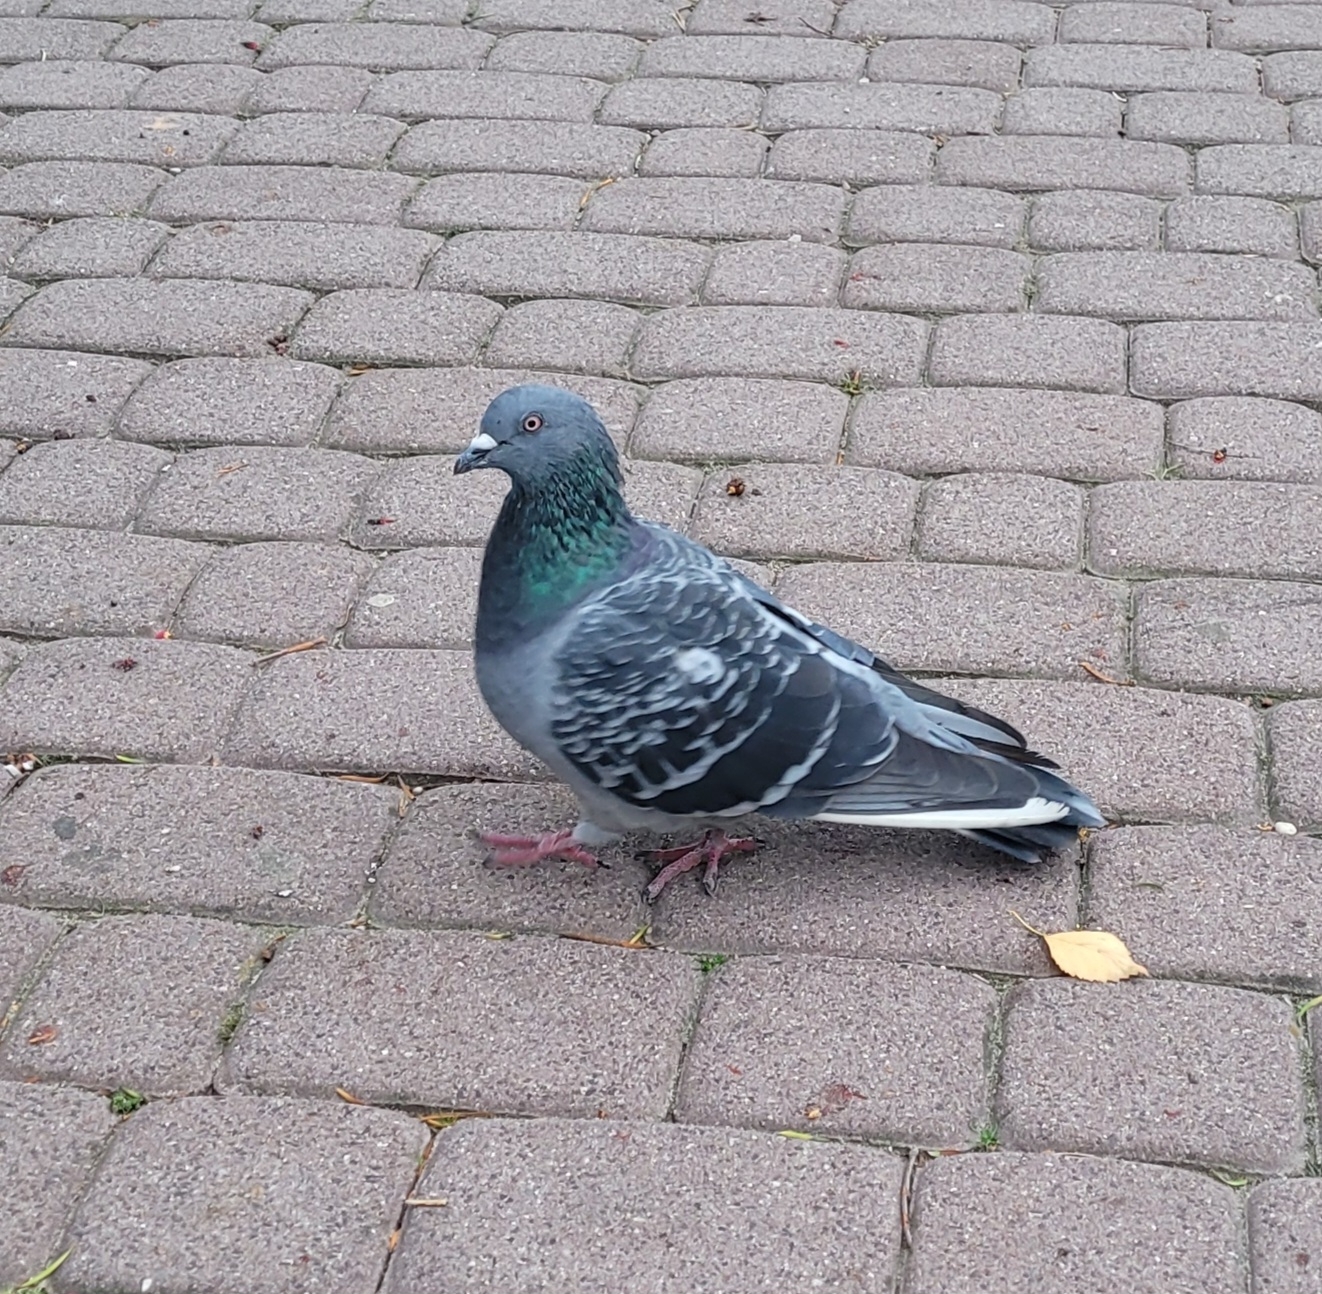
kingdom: Animalia
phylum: Chordata
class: Aves
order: Columbiformes
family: Columbidae
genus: Columba
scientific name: Columba livia
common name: Rock pigeon
